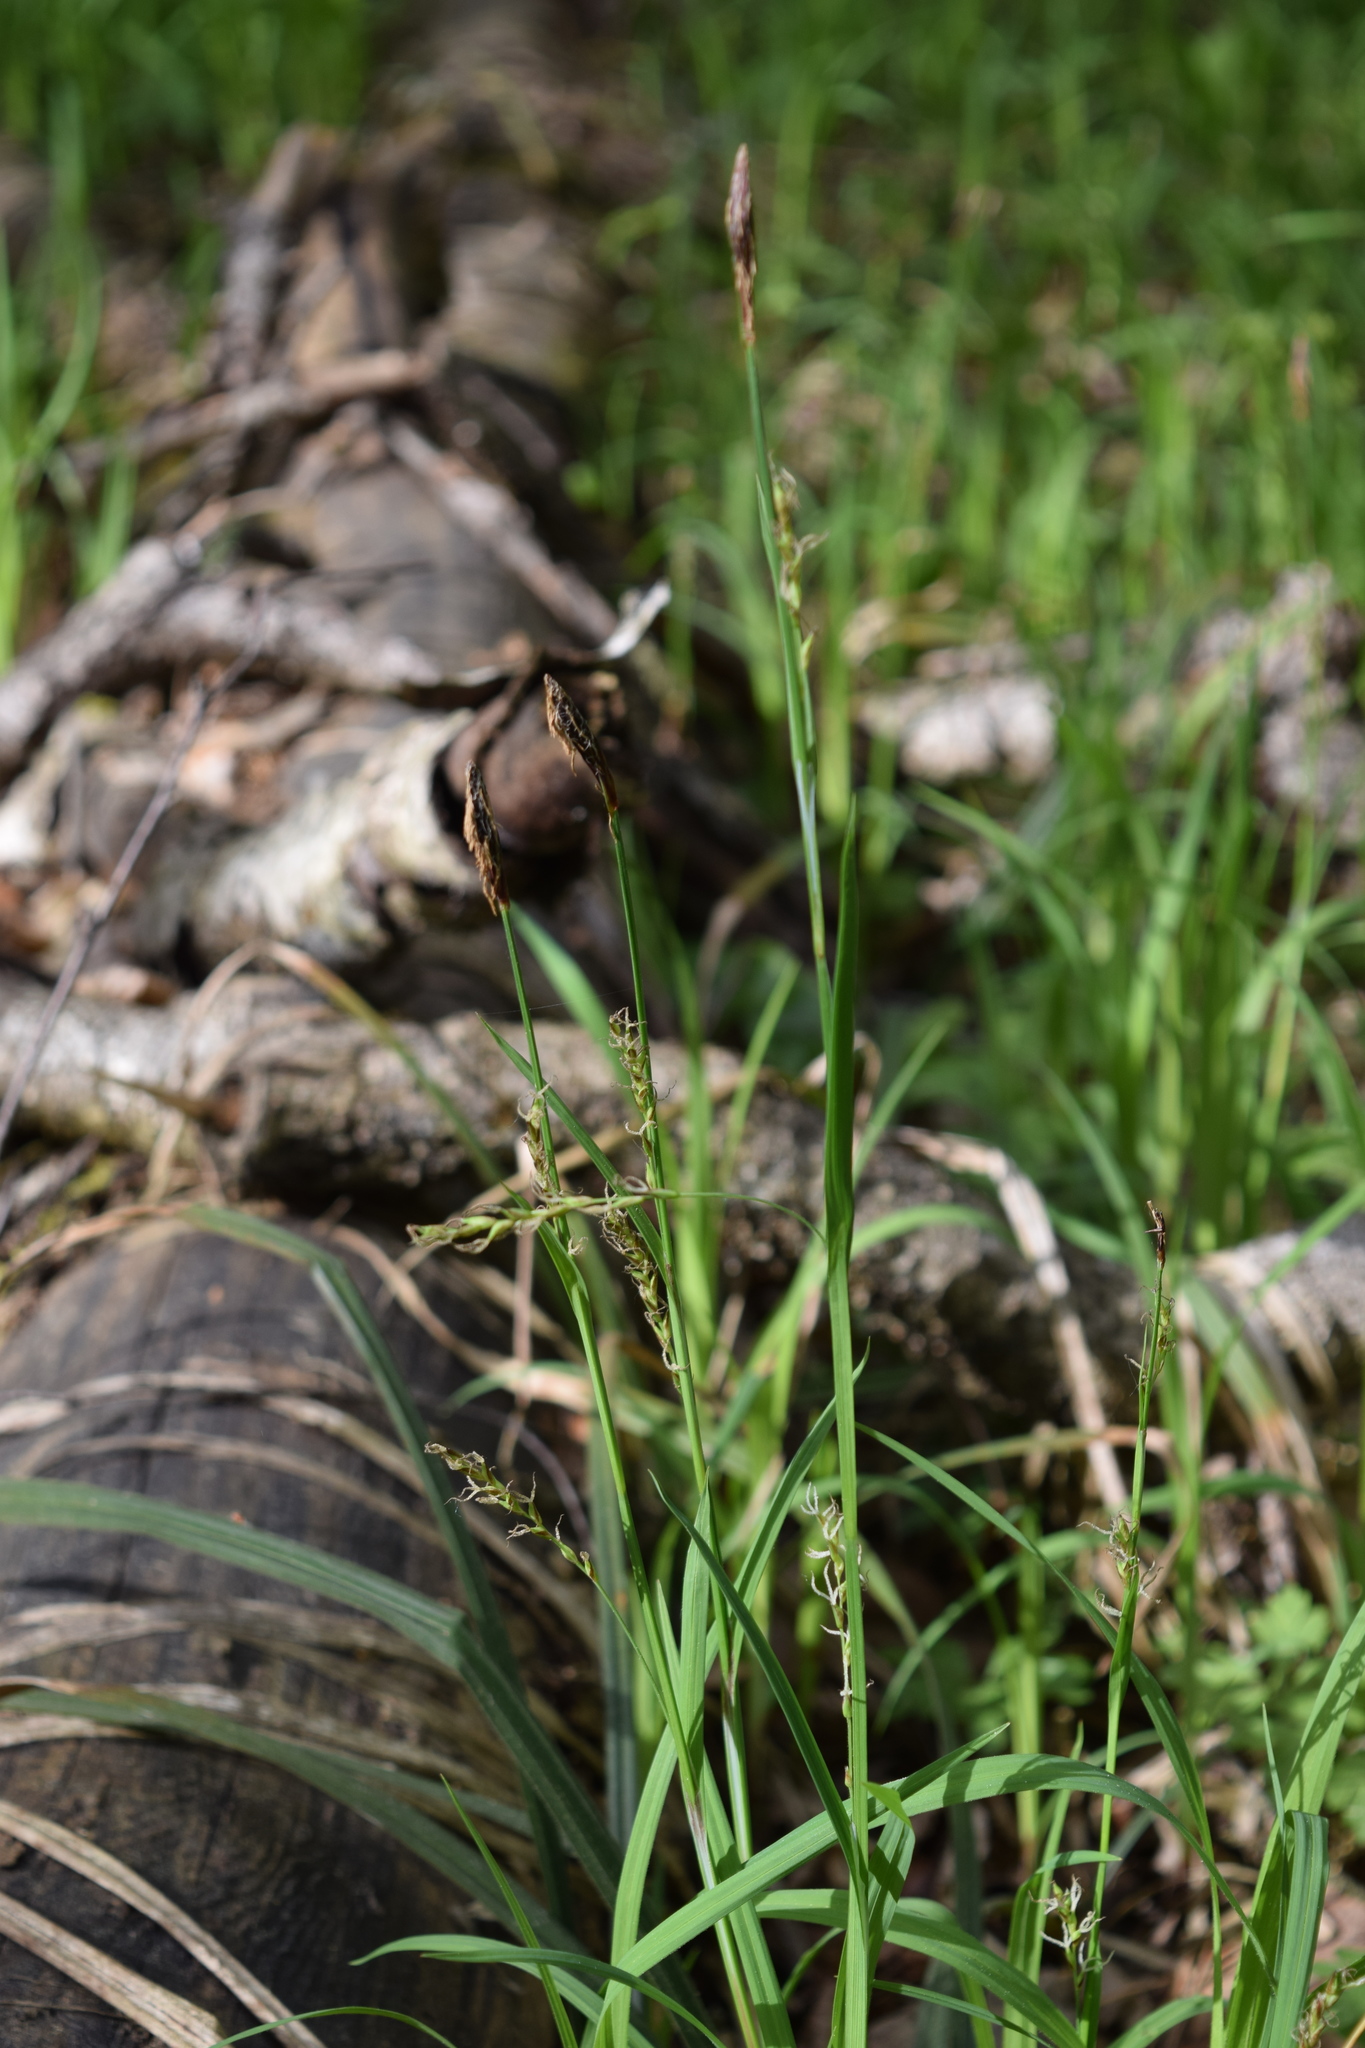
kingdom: Plantae
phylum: Tracheophyta
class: Liliopsida
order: Poales
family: Cyperaceae
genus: Carex
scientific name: Carex pilosa
